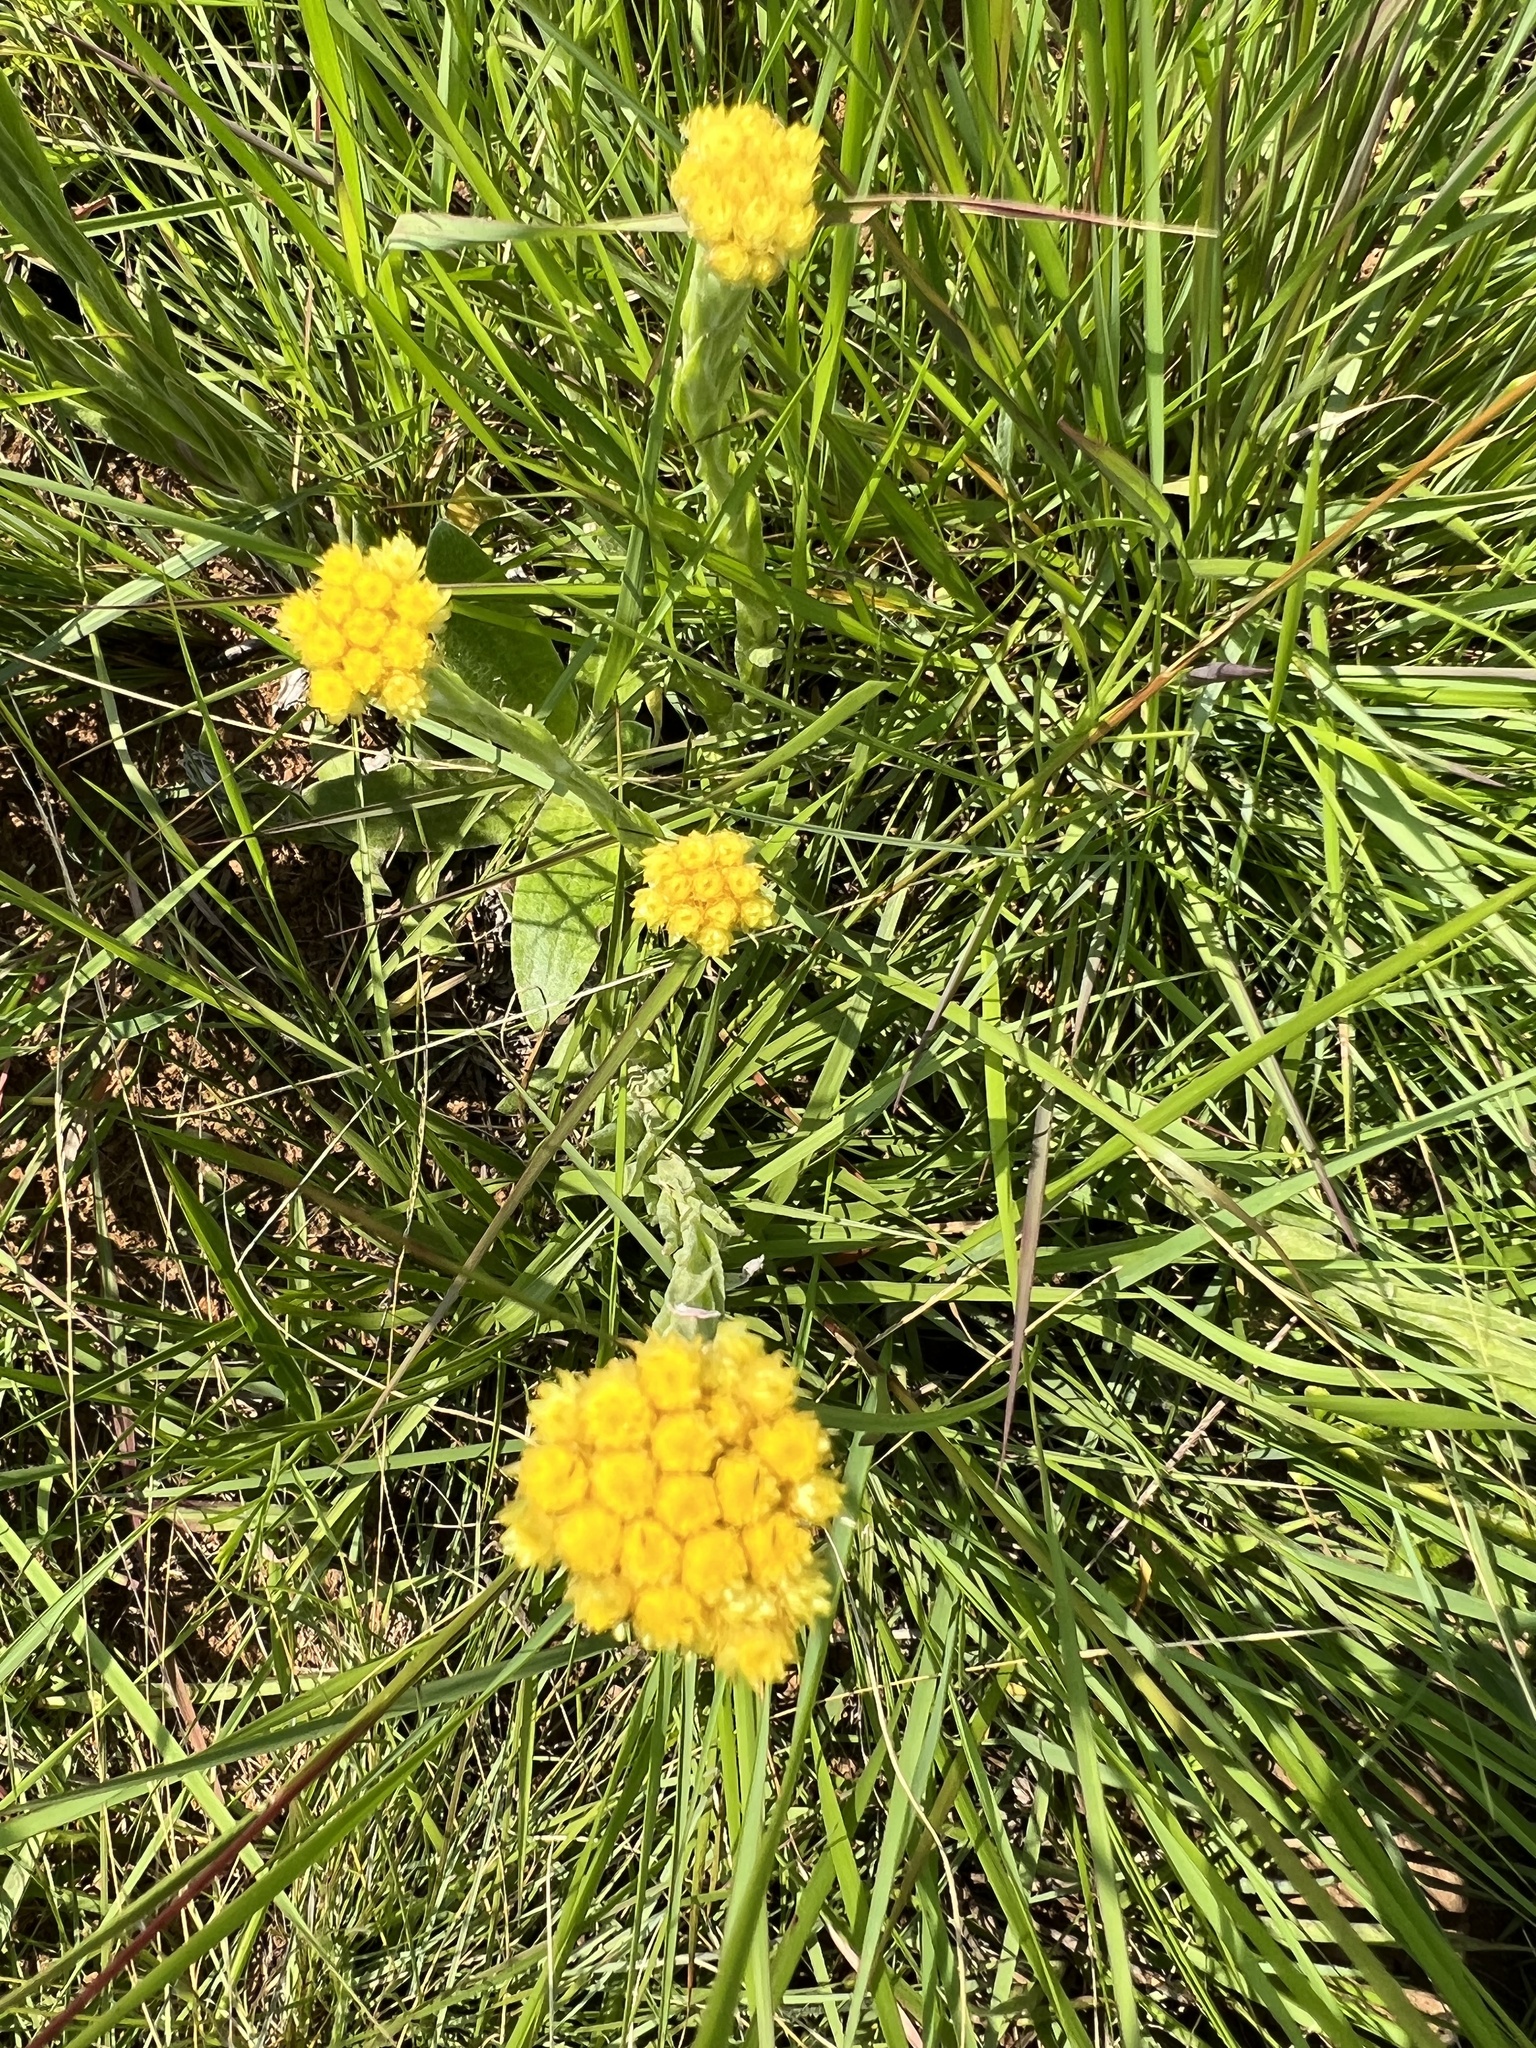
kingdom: Plantae
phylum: Tracheophyta
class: Magnoliopsida
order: Asterales
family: Asteraceae
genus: Helichrysum
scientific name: Helichrysum subluteum
